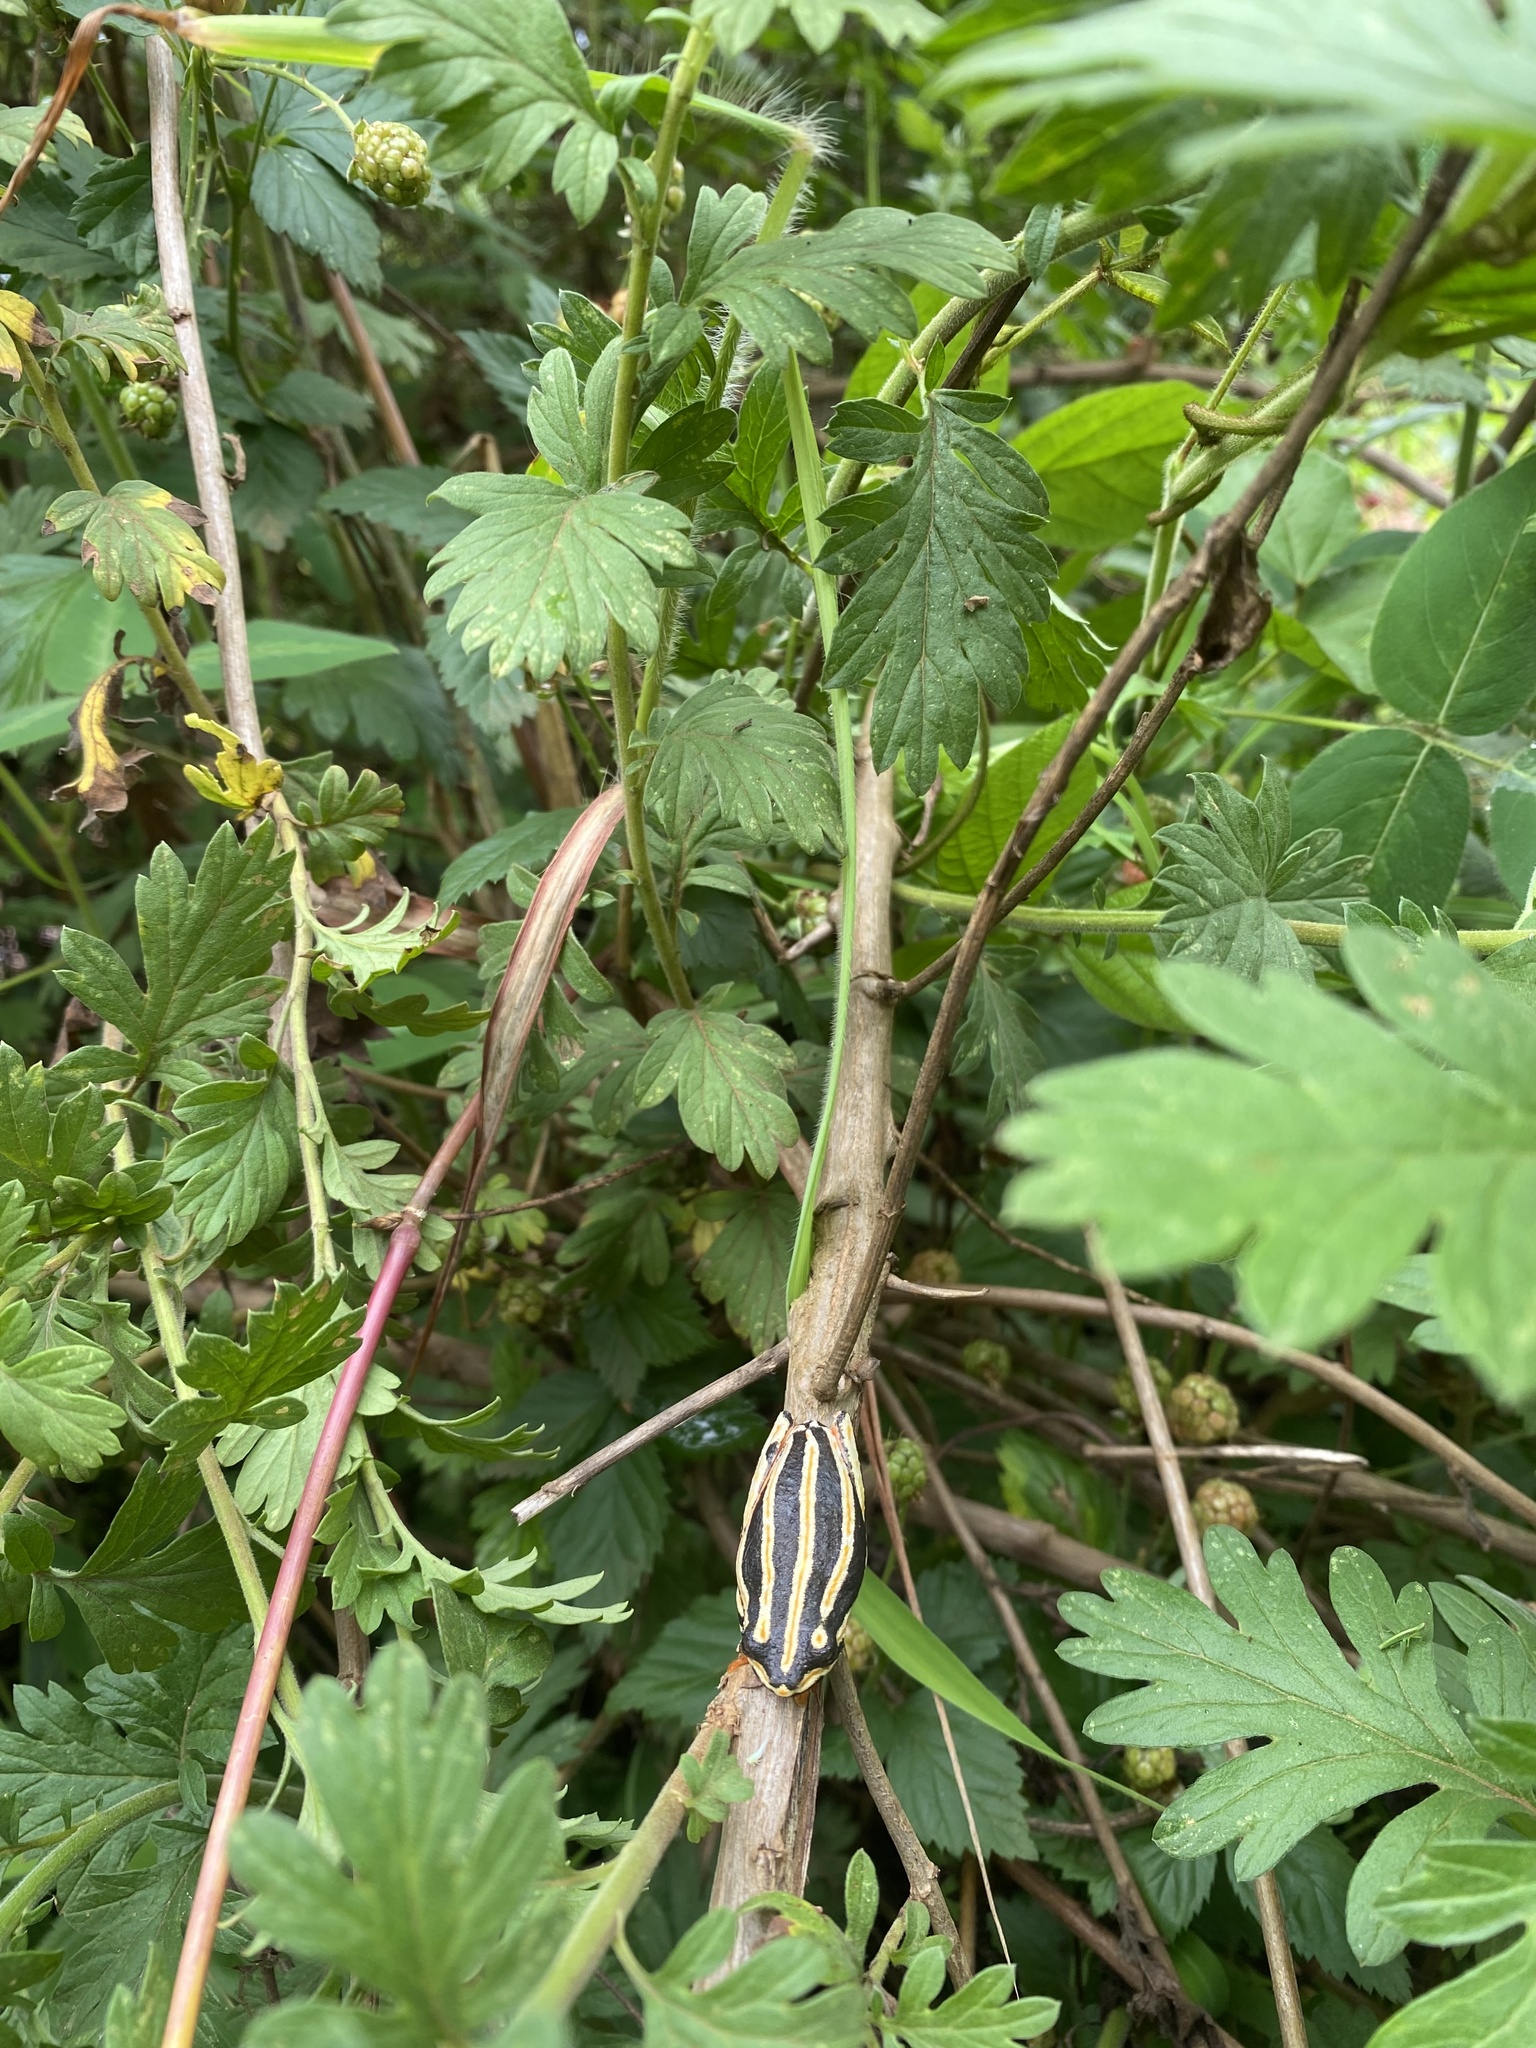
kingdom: Animalia
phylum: Chordata
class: Amphibia
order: Anura
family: Hyperoliidae
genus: Hyperolius
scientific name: Hyperolius marmoratus
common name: Painted reed frog
